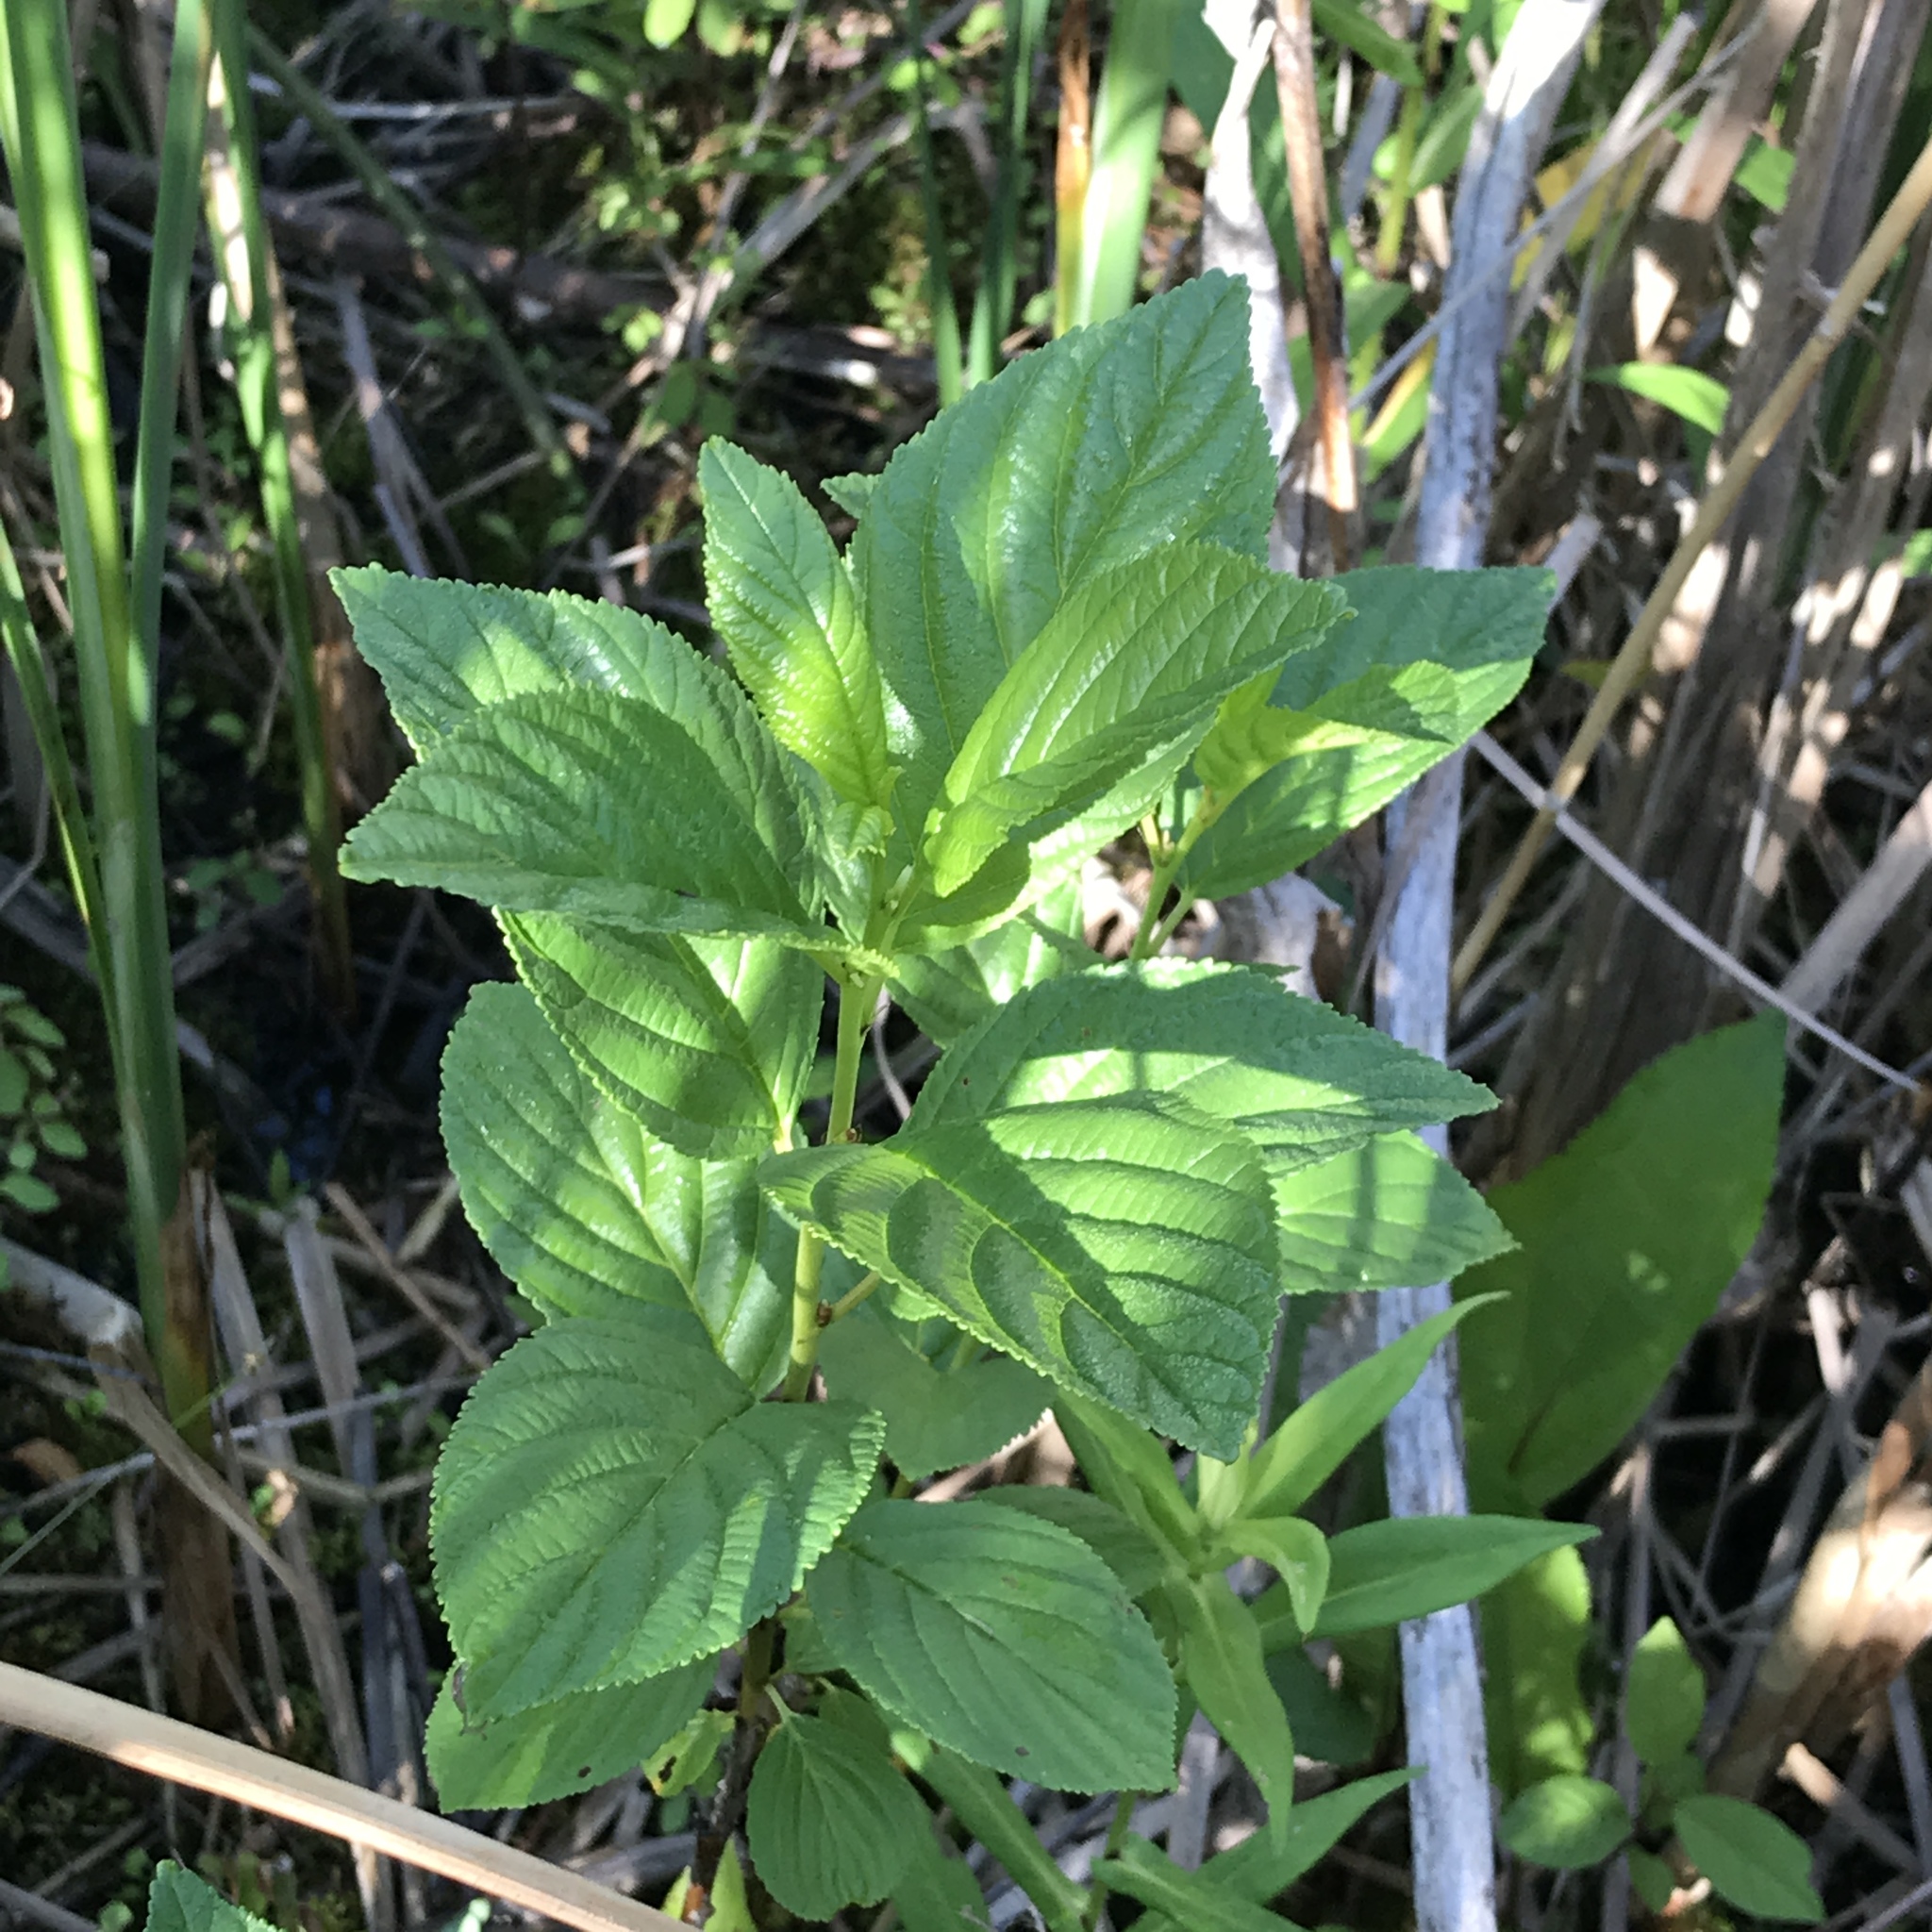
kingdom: Plantae
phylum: Tracheophyta
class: Magnoliopsida
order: Rosales
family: Rhamnaceae
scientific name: Rhamnaceae
